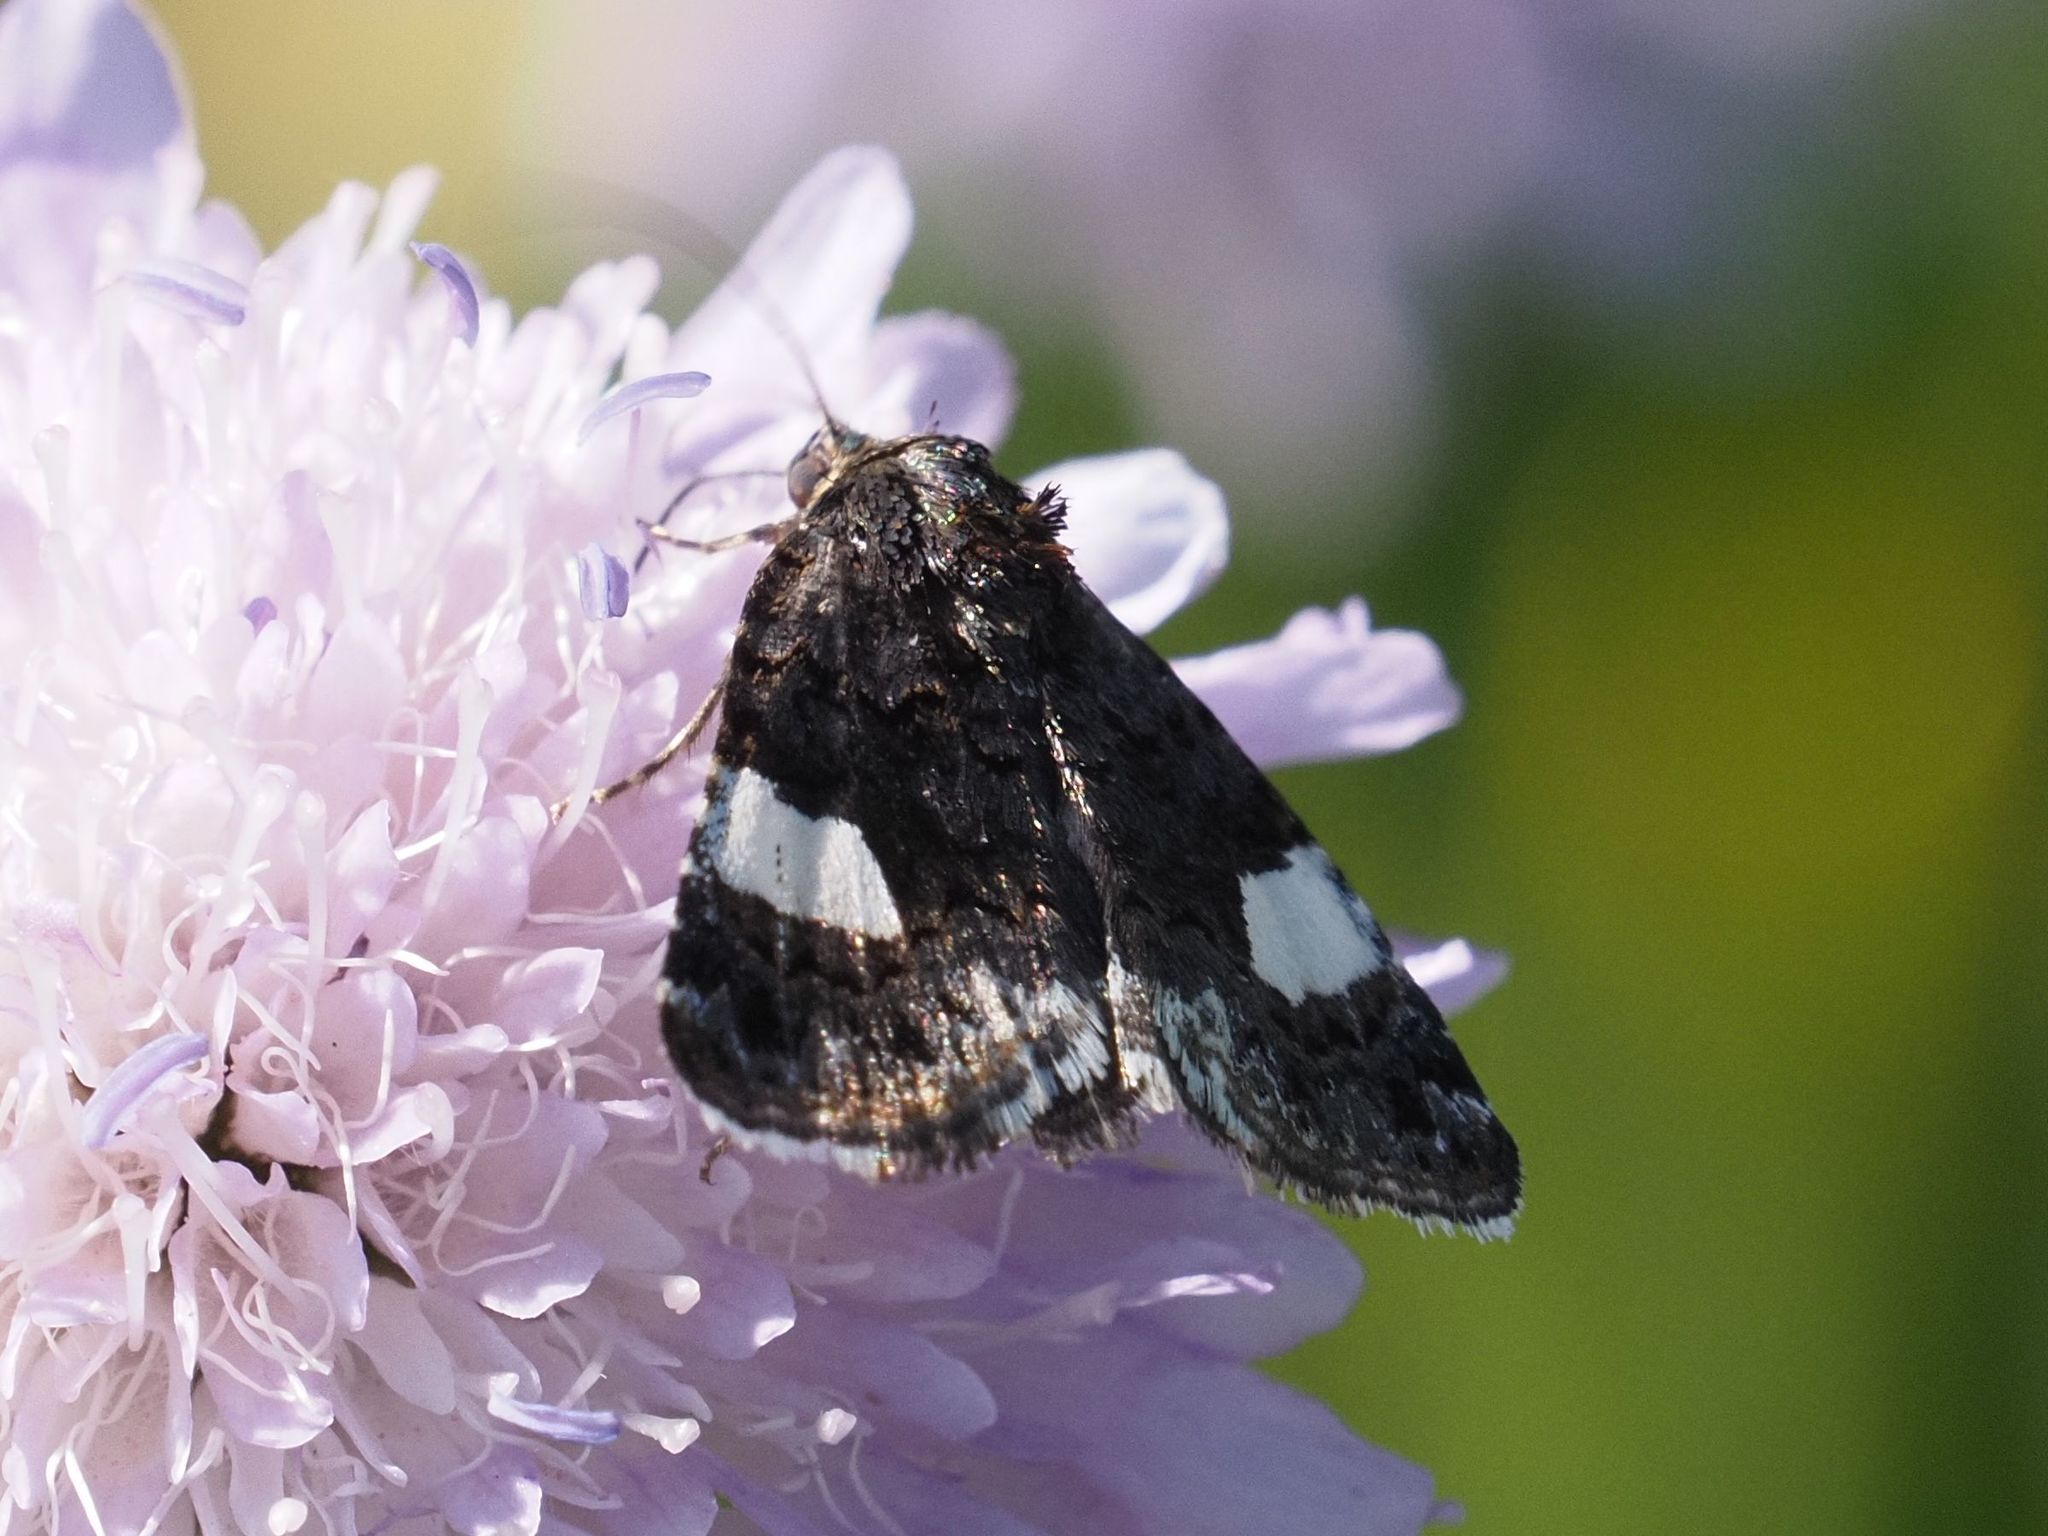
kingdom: Animalia
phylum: Arthropoda
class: Insecta
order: Lepidoptera
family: Erebidae
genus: Tyta
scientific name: Tyta luctuosa
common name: Four-spotted
